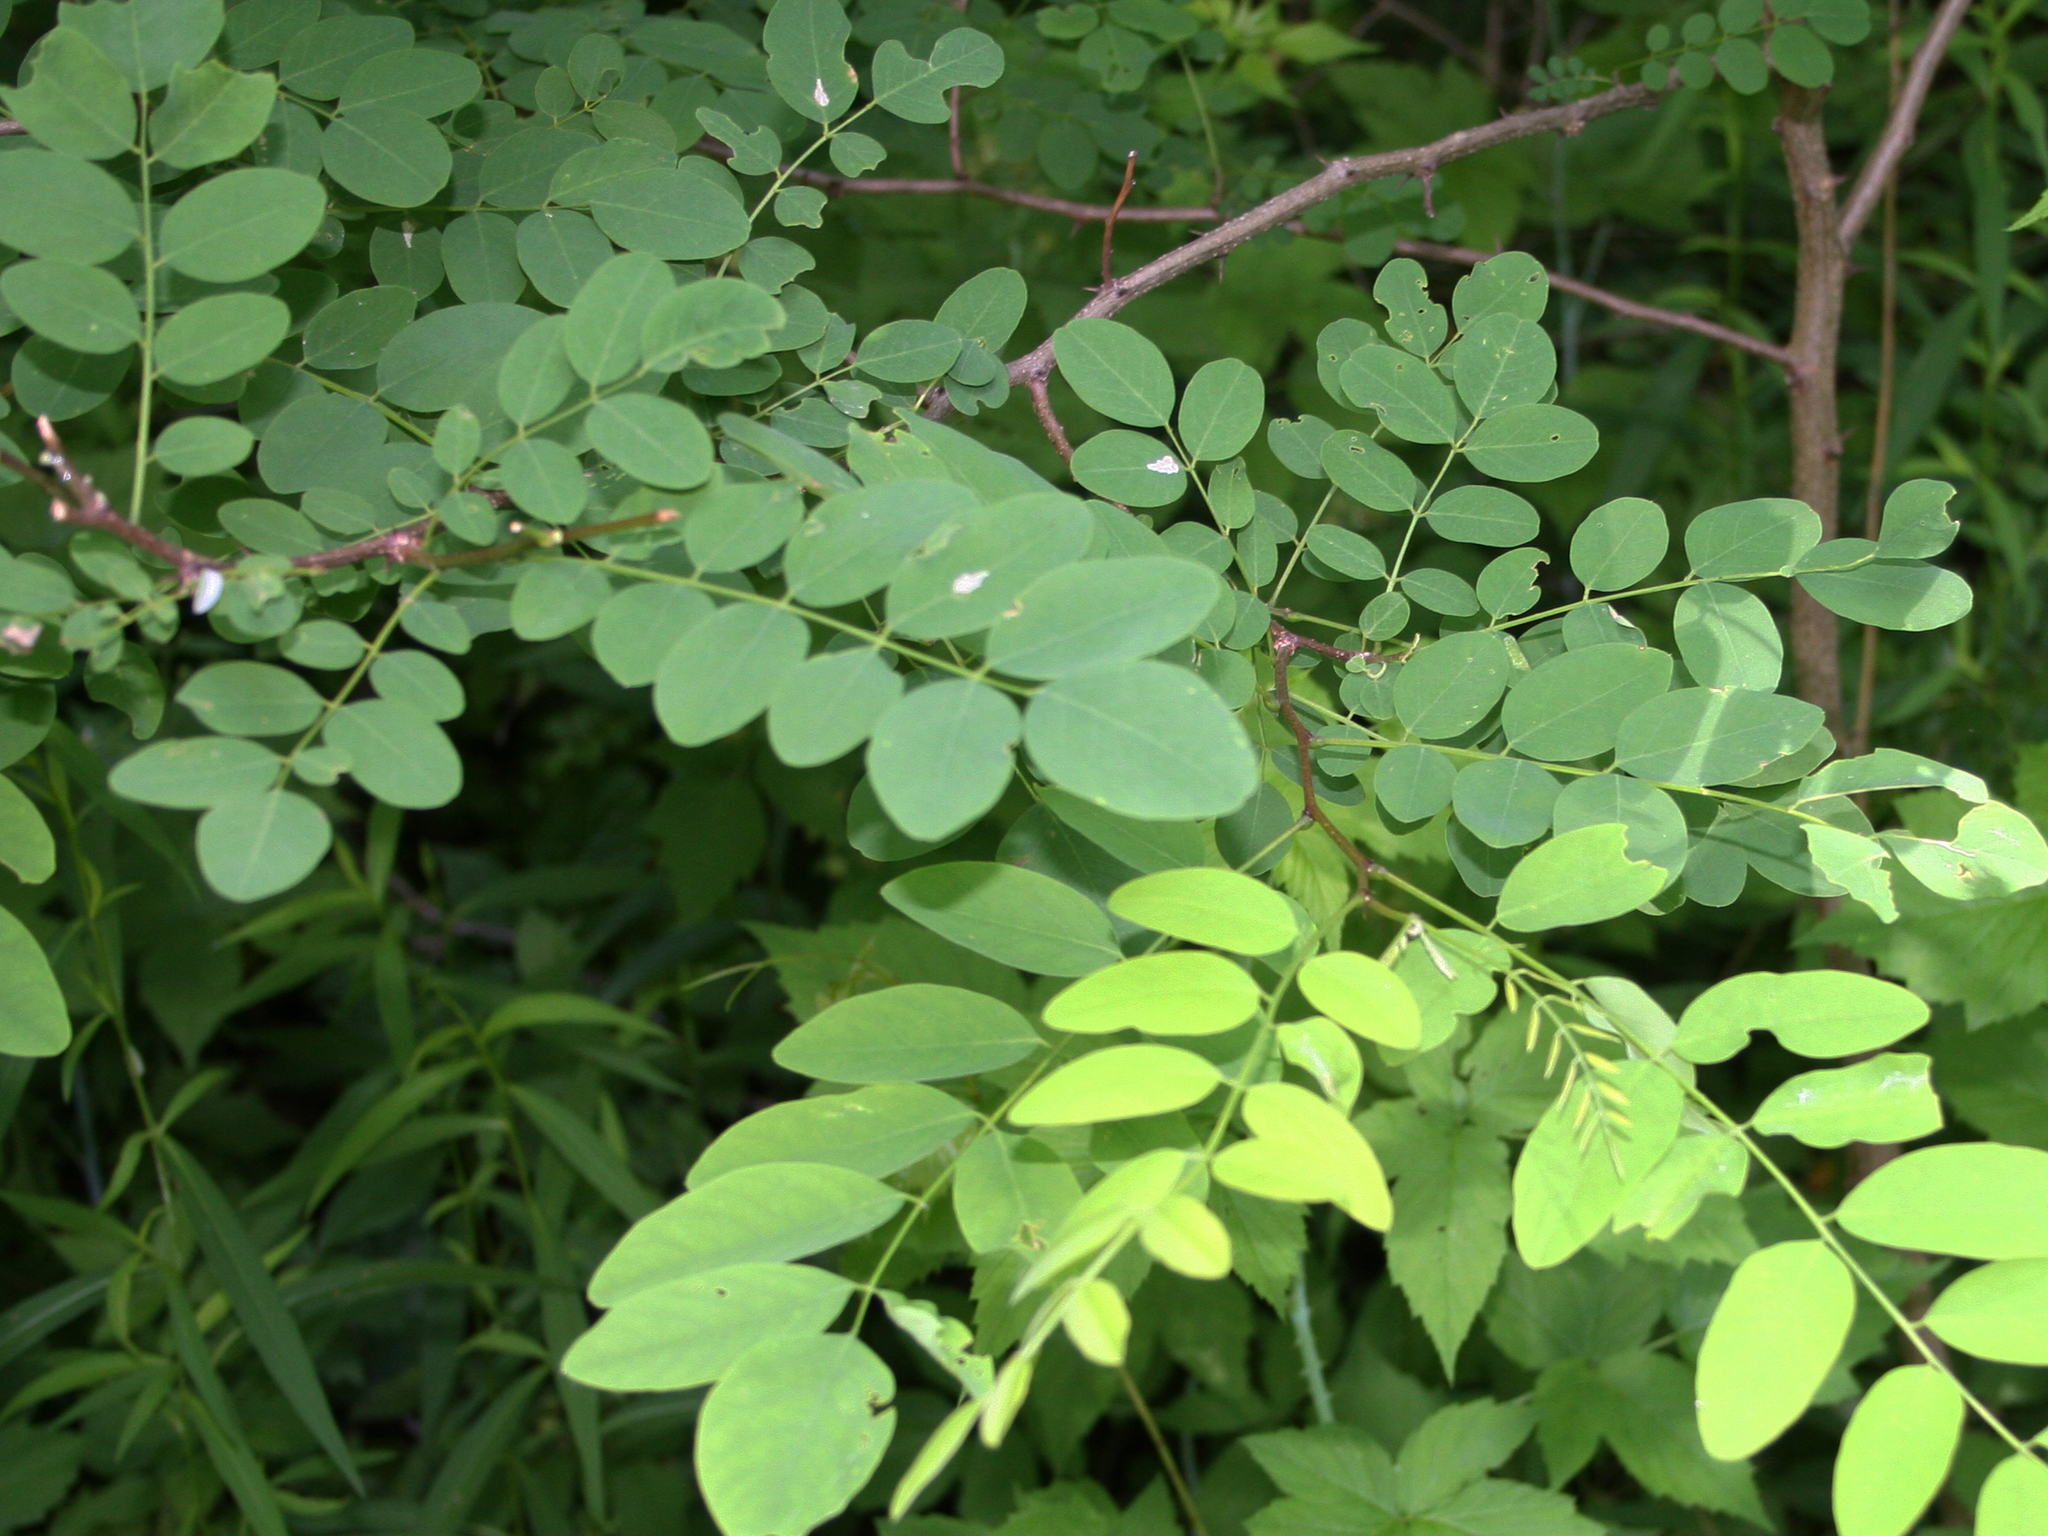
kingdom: Plantae
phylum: Tracheophyta
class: Magnoliopsida
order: Fabales
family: Fabaceae
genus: Robinia
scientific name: Robinia pseudoacacia
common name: Black locust
